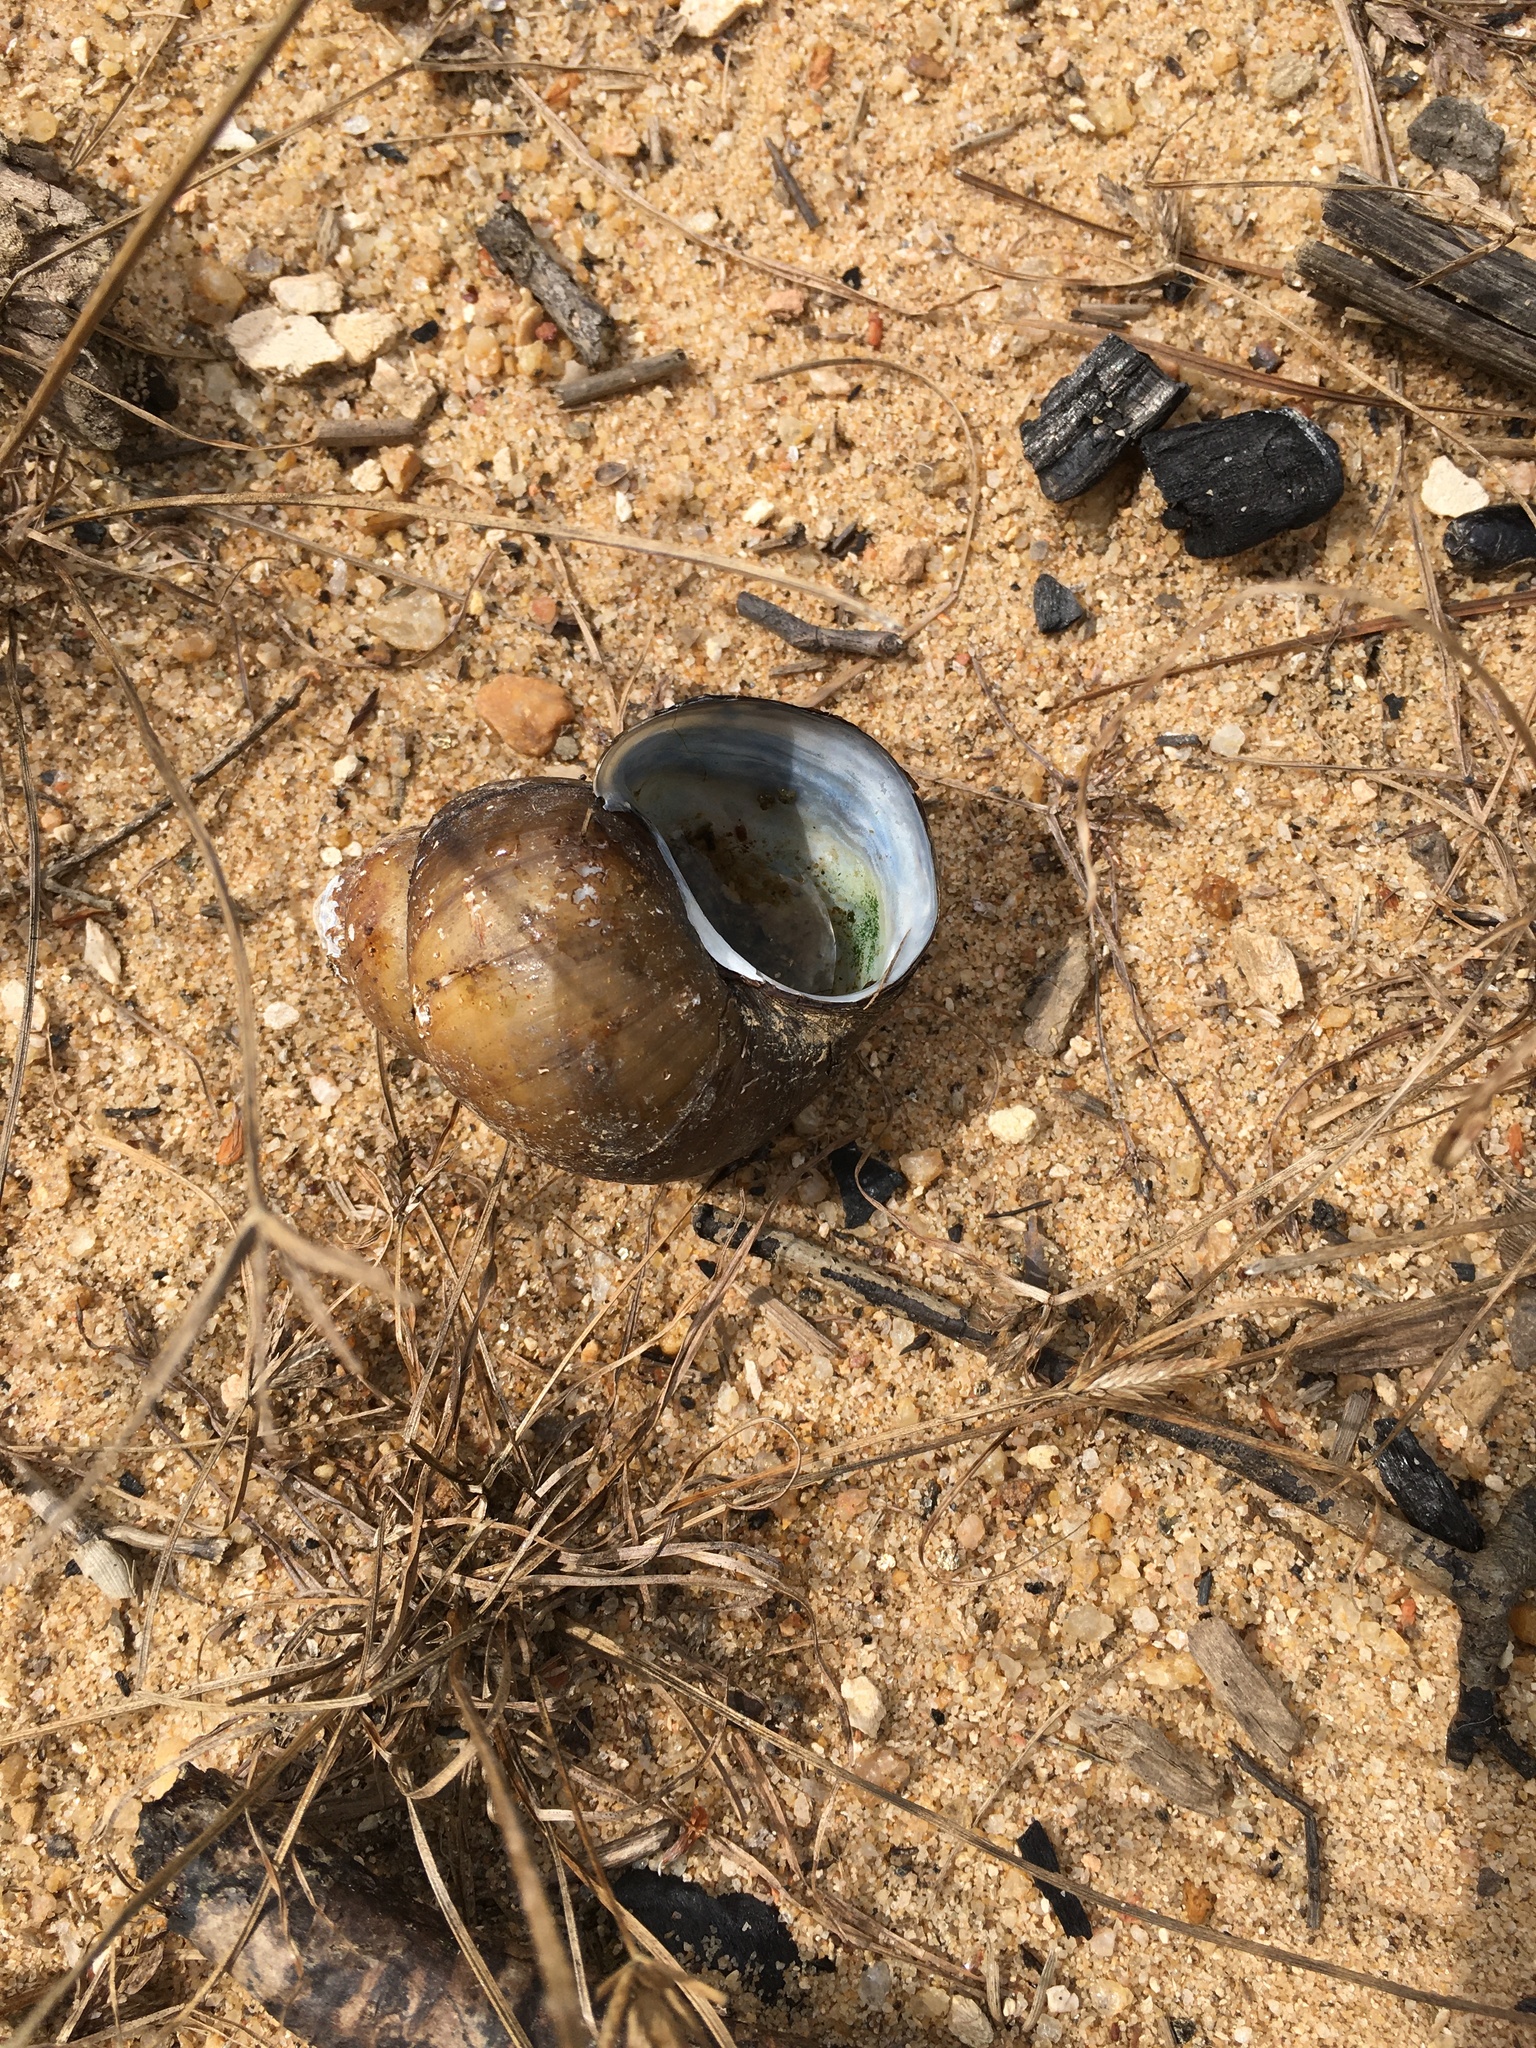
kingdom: Animalia
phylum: Mollusca
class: Gastropoda
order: Architaenioglossa
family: Viviparidae
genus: Cipangopaludina
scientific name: Cipangopaludina chinensis
